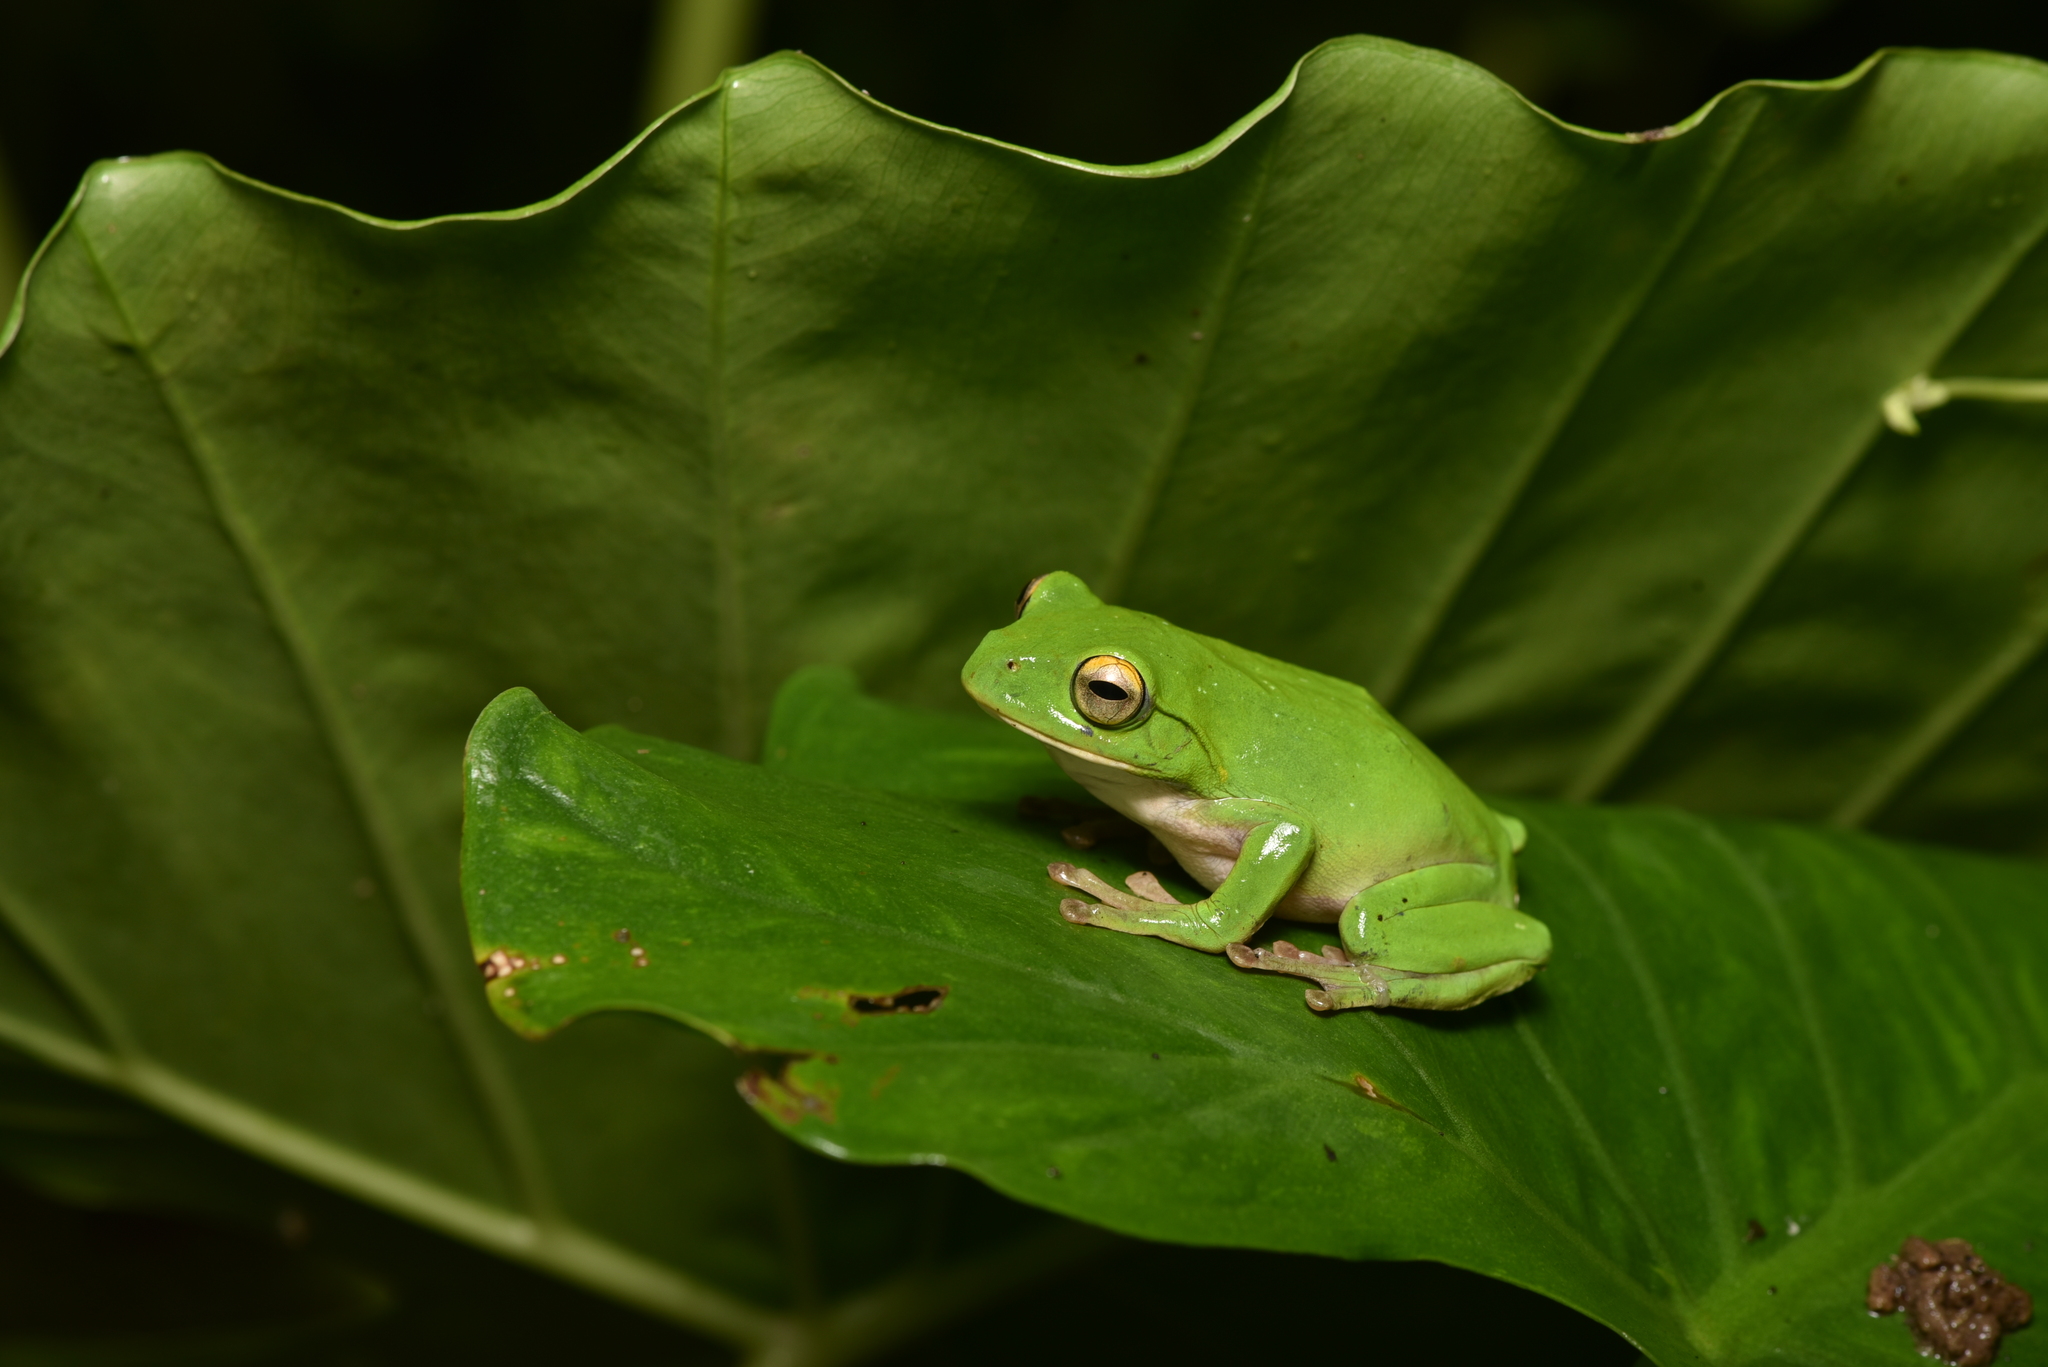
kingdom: Animalia
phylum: Chordata
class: Amphibia
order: Anura
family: Rhacophoridae
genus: Zhangixalus
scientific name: Zhangixalus moltrechti
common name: Moltrecht's treefrog
